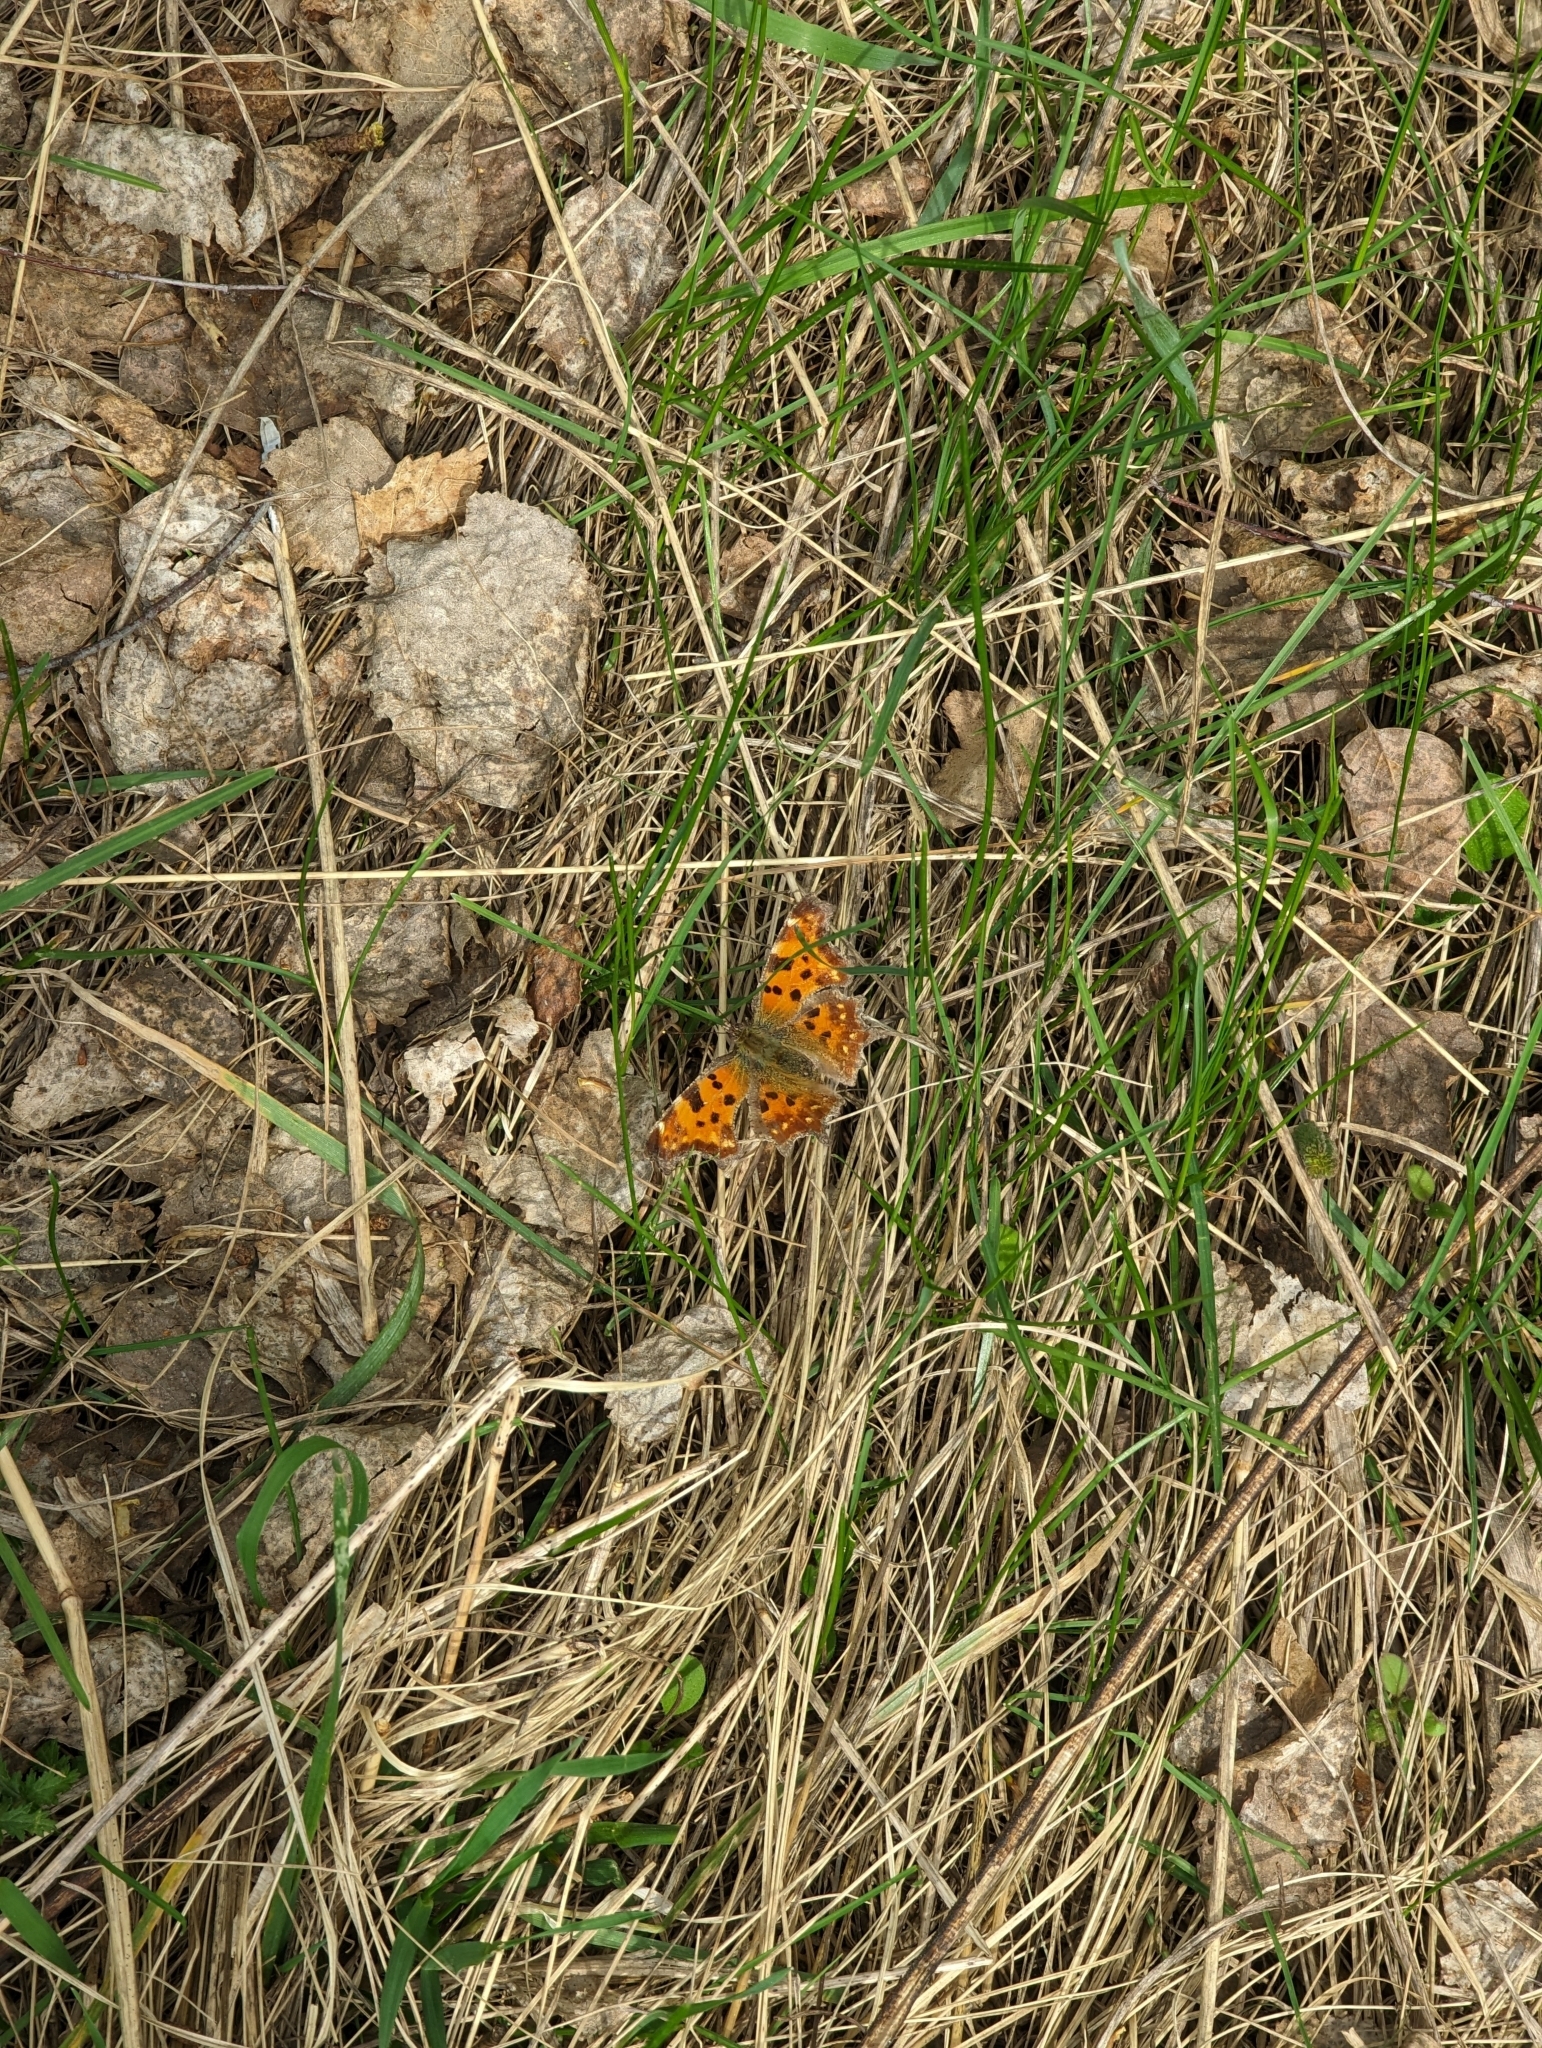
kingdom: Animalia
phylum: Arthropoda
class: Insecta
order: Lepidoptera
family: Nymphalidae
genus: Polygonia
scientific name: Polygonia c-album
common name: Comma
